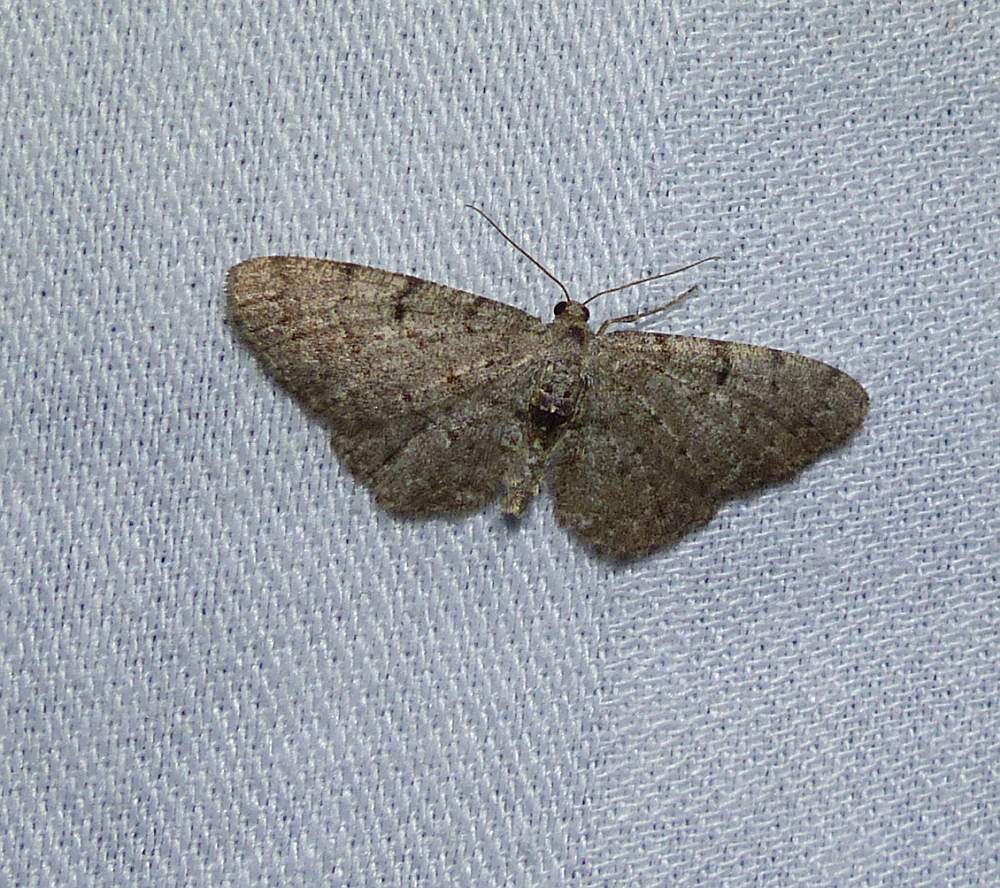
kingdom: Animalia
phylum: Arthropoda
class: Insecta
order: Lepidoptera
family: Geometridae
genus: Aethalura
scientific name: Aethalura intertexta
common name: Four-barred gray
